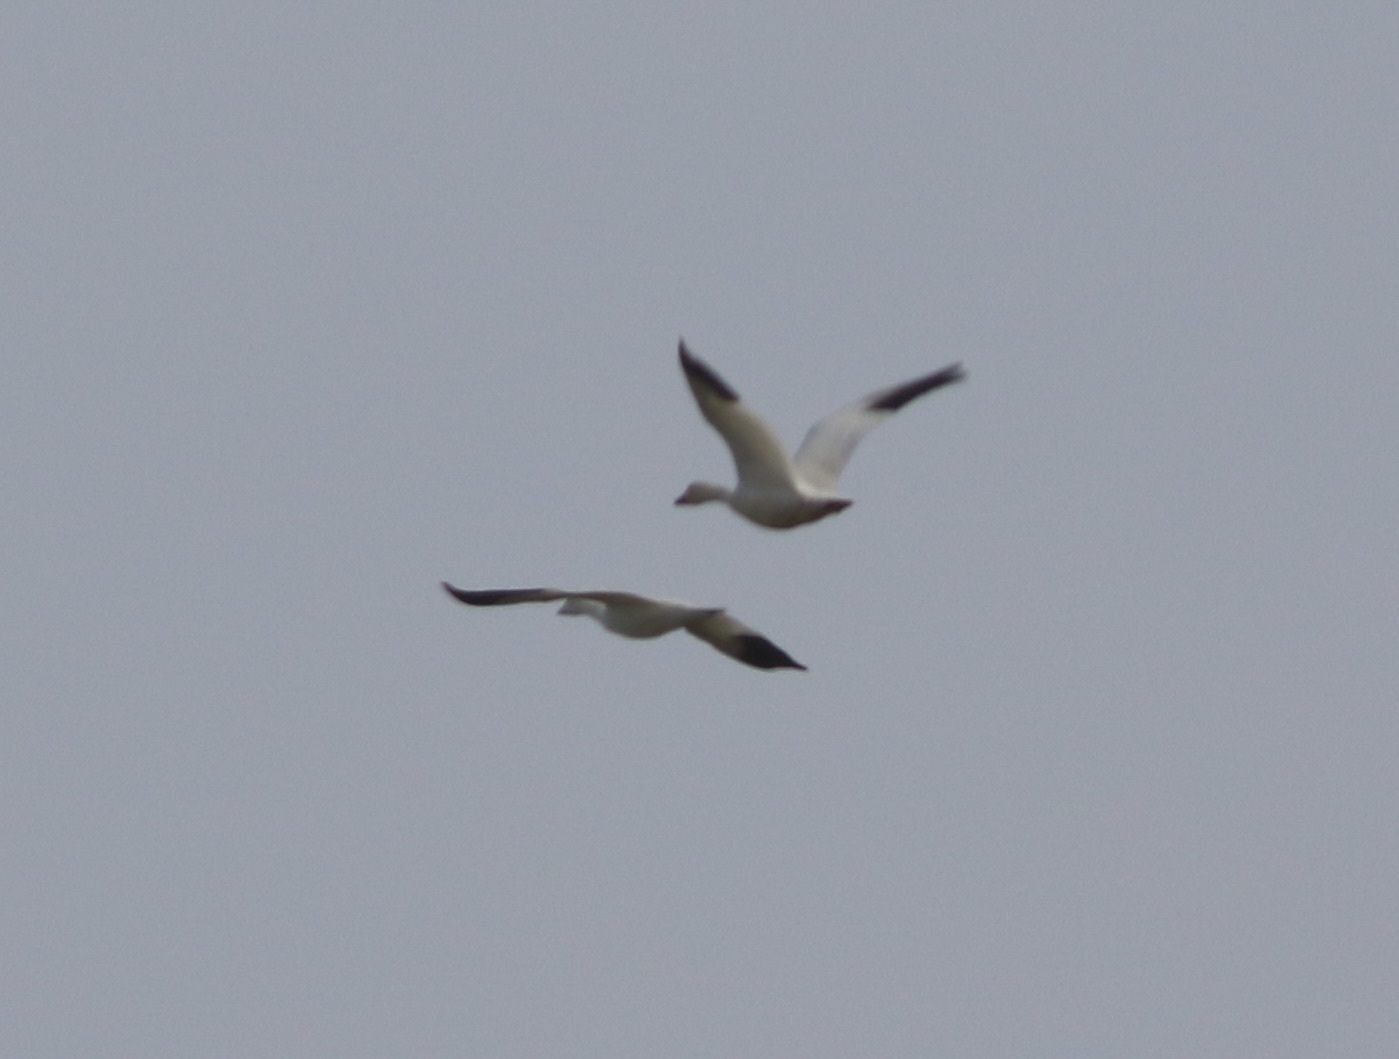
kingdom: Animalia
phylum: Chordata
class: Aves
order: Anseriformes
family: Anatidae
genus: Anser
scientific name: Anser caerulescens
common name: Snow goose
